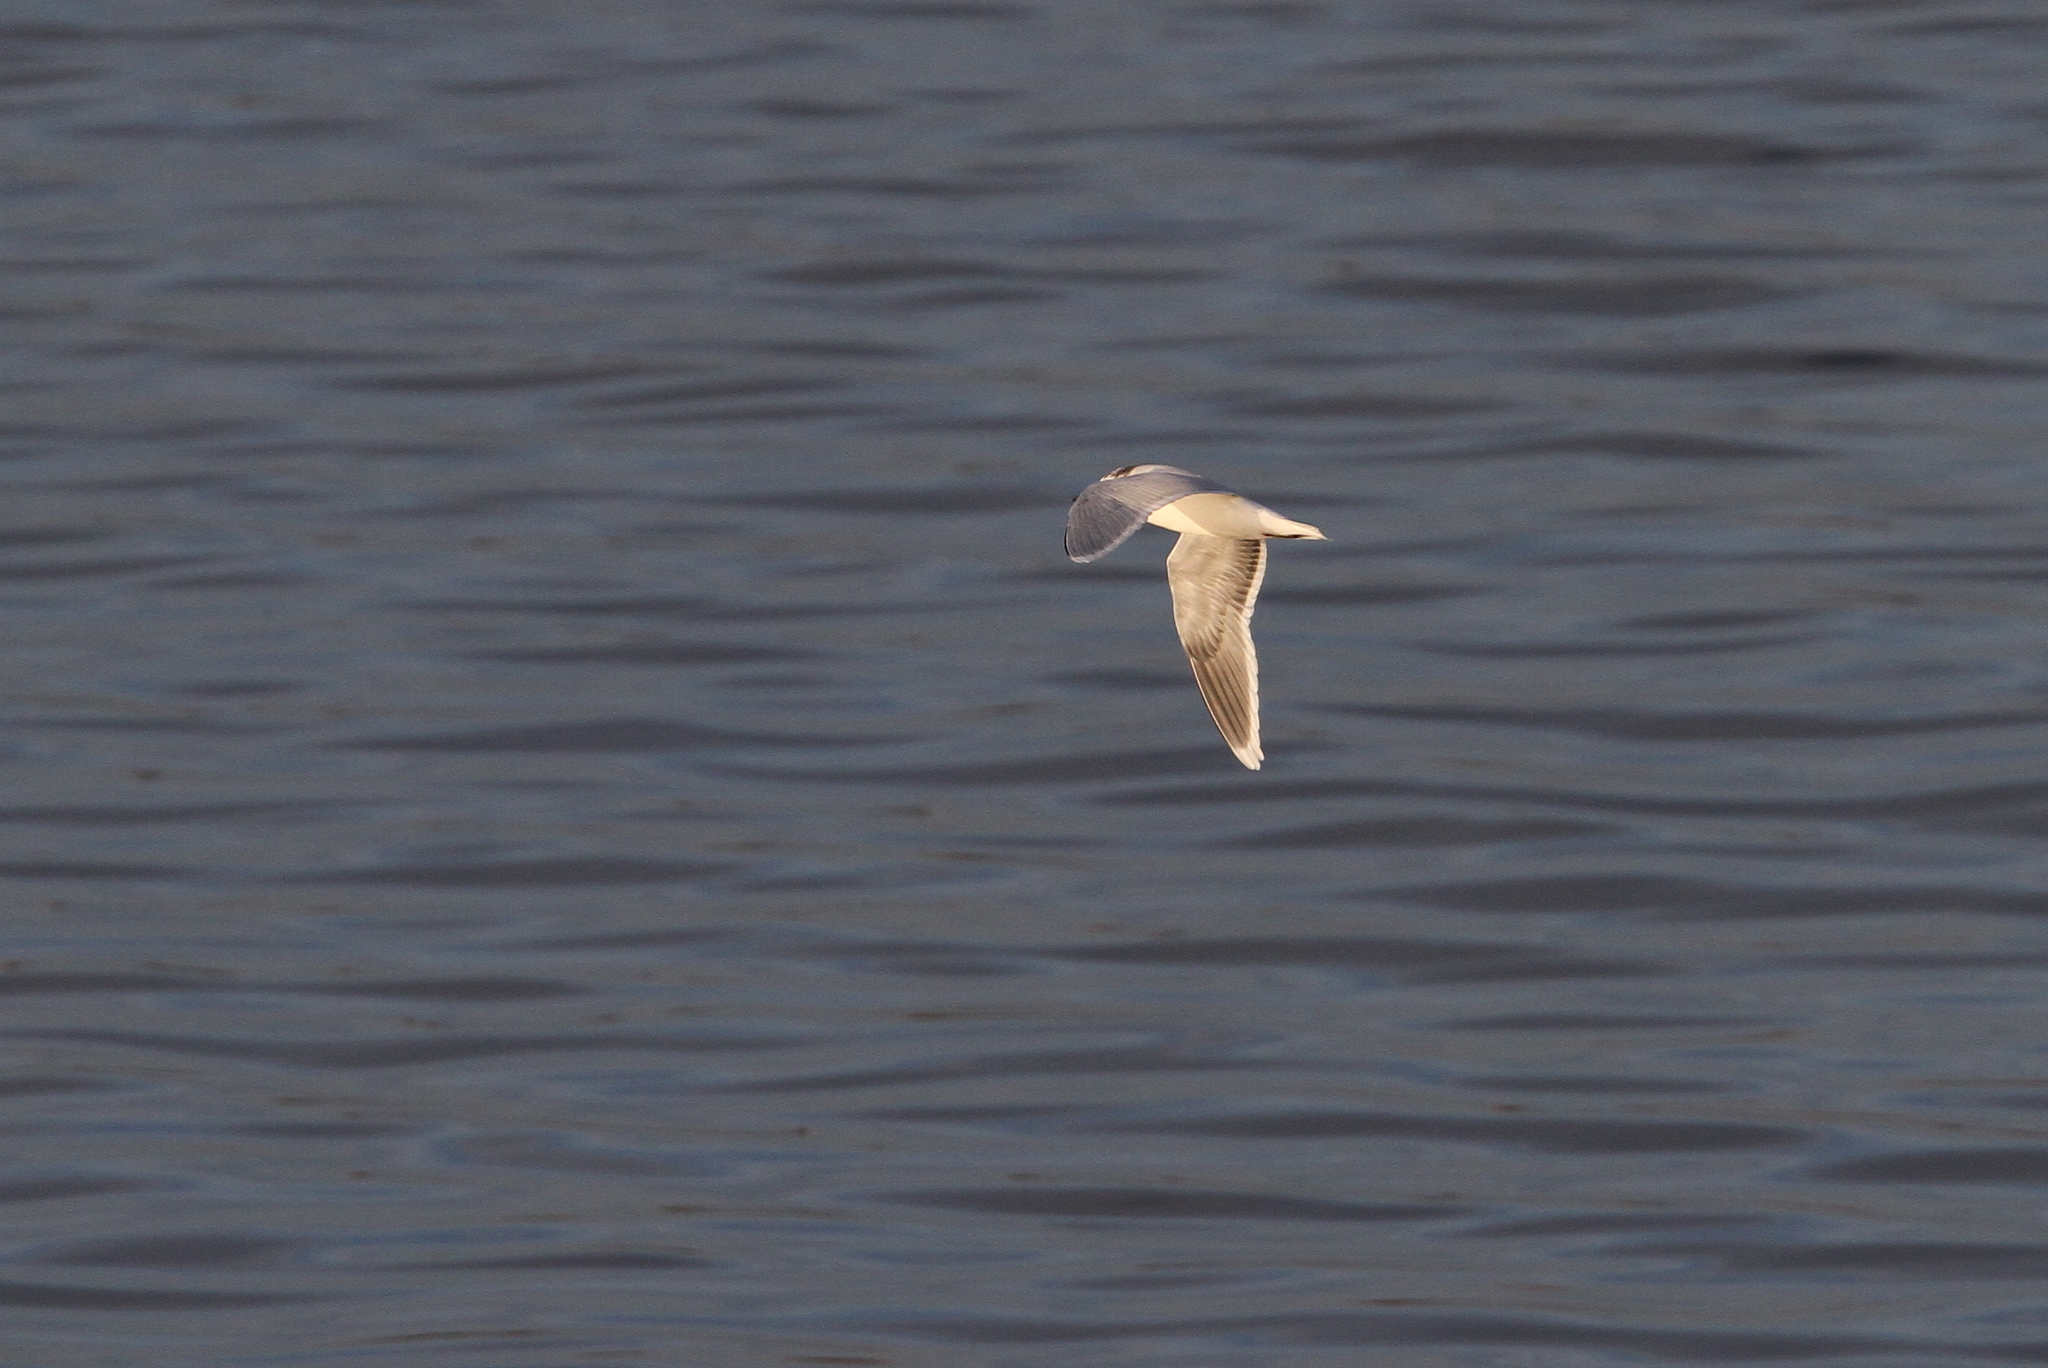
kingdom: Animalia
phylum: Chordata
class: Aves
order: Charadriiformes
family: Laridae
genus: Hydrocoloeus
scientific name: Hydrocoloeus minutus
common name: Little gull
